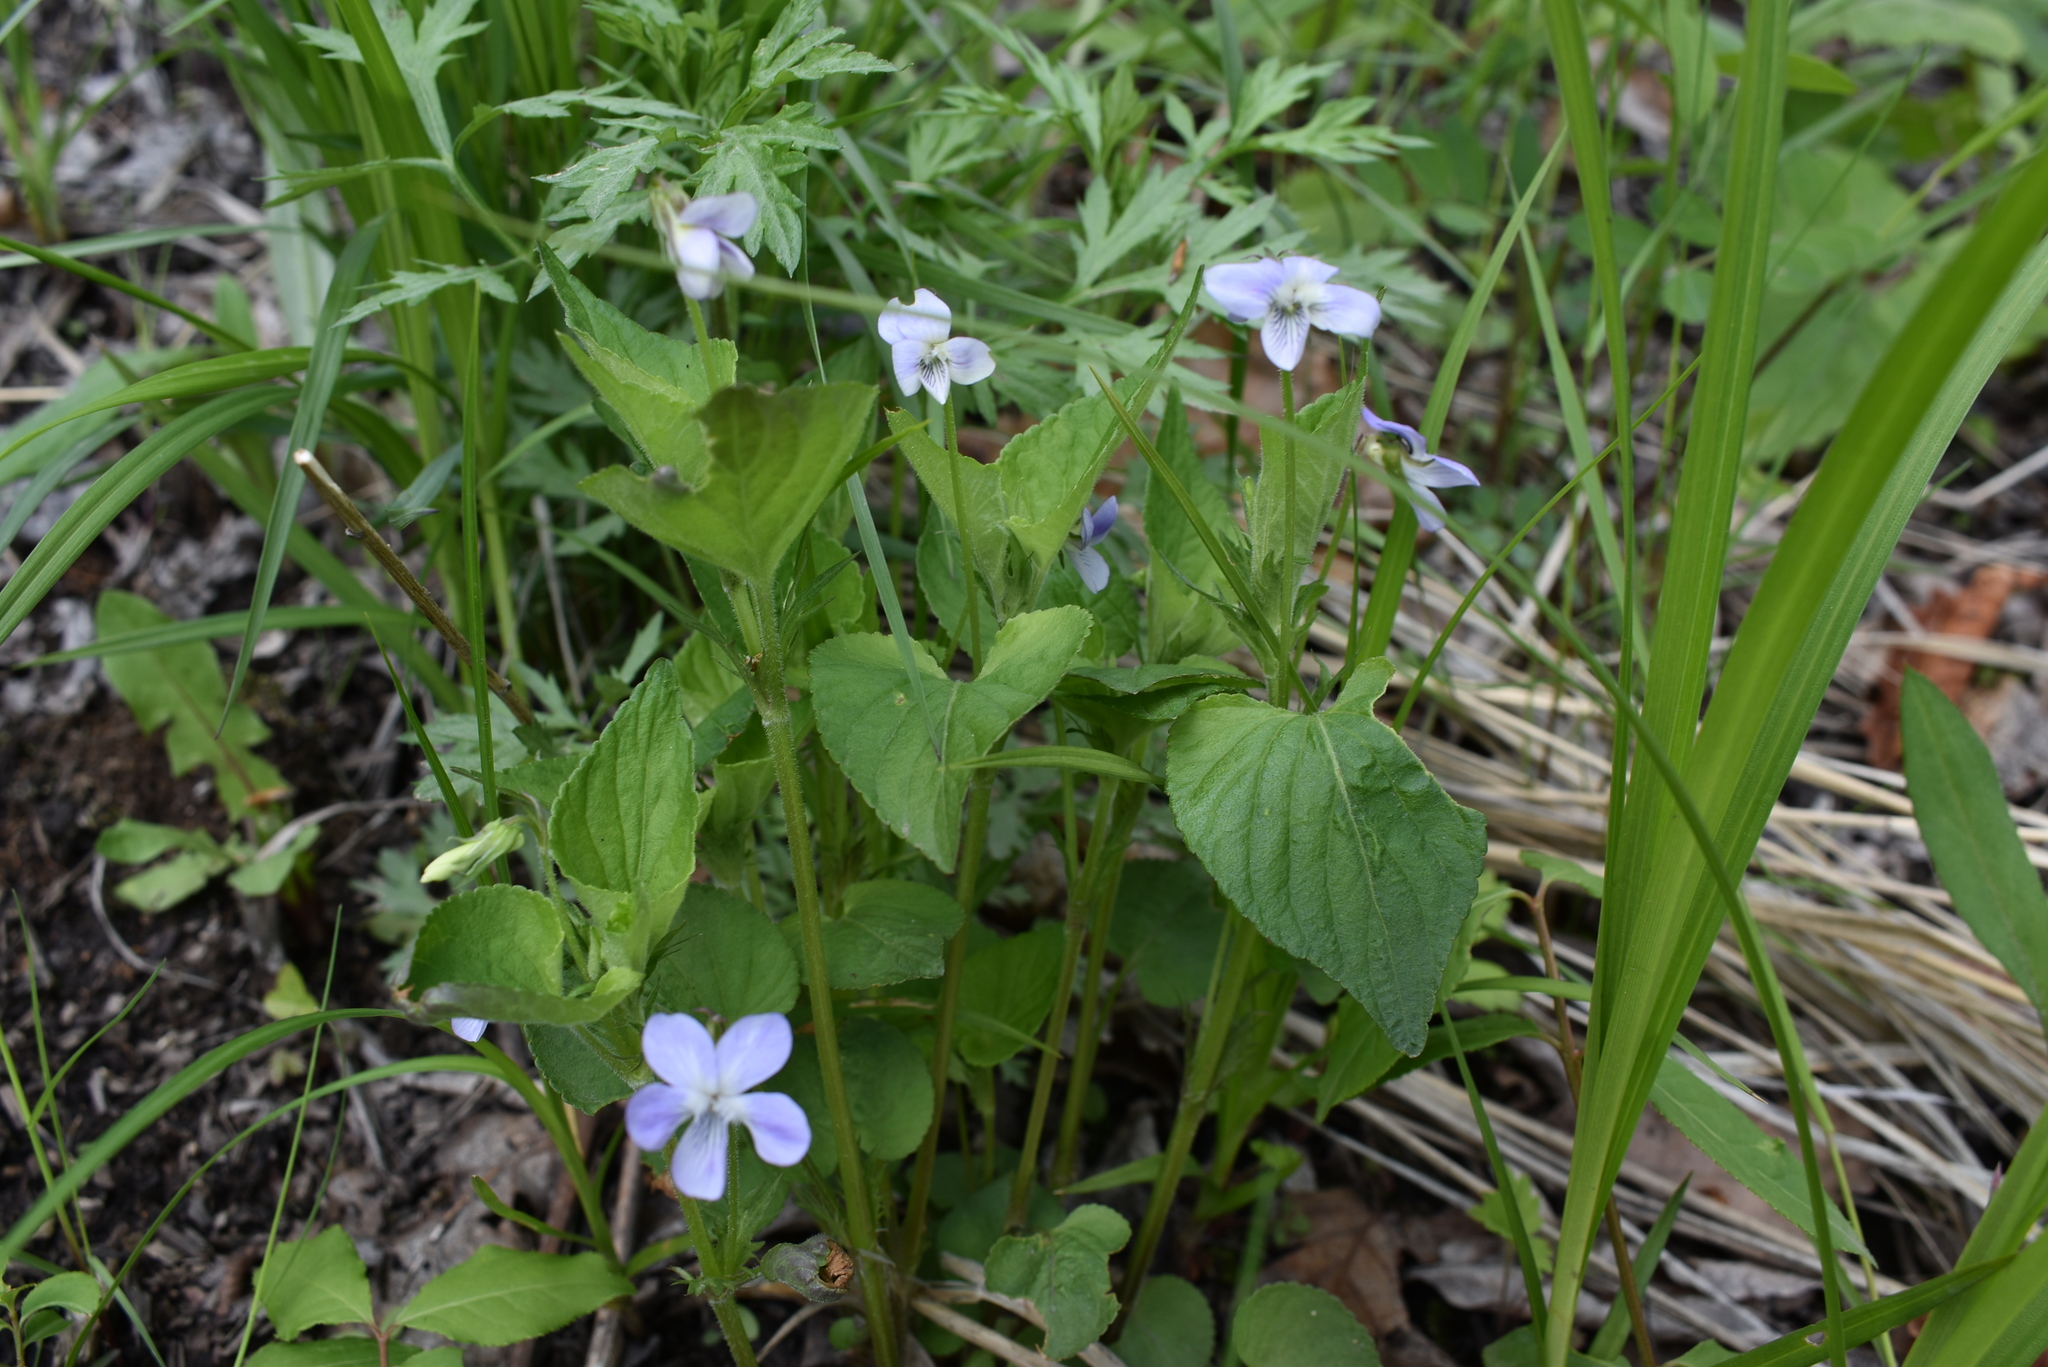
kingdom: Plantae
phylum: Tracheophyta
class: Magnoliopsida
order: Malpighiales
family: Violaceae
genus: Viola
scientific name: Viola acuminata
